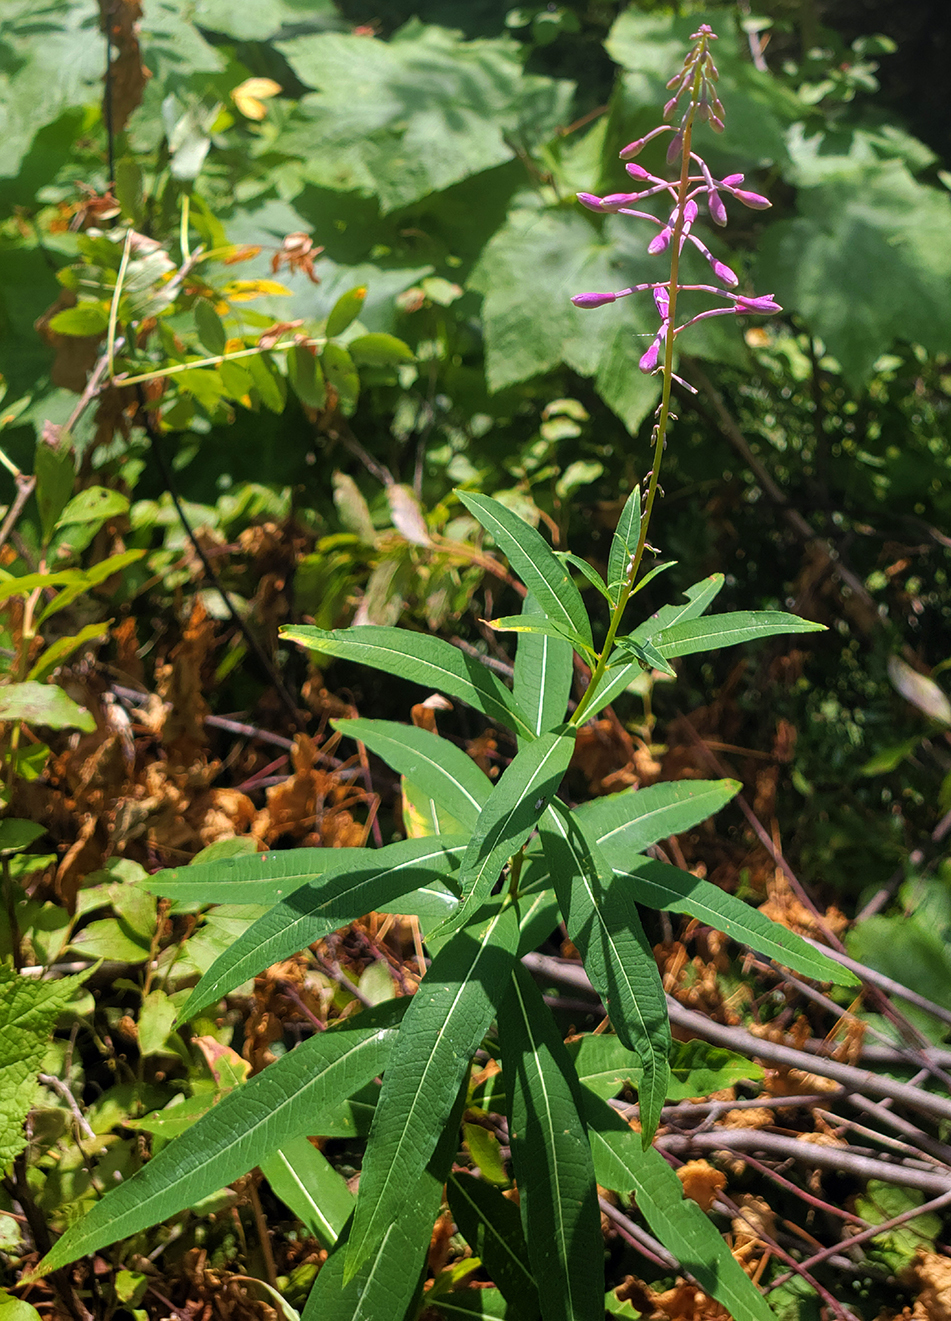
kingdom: Plantae
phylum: Tracheophyta
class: Magnoliopsida
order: Myrtales
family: Onagraceae
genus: Chamaenerion
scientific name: Chamaenerion angustifolium
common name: Fireweed
